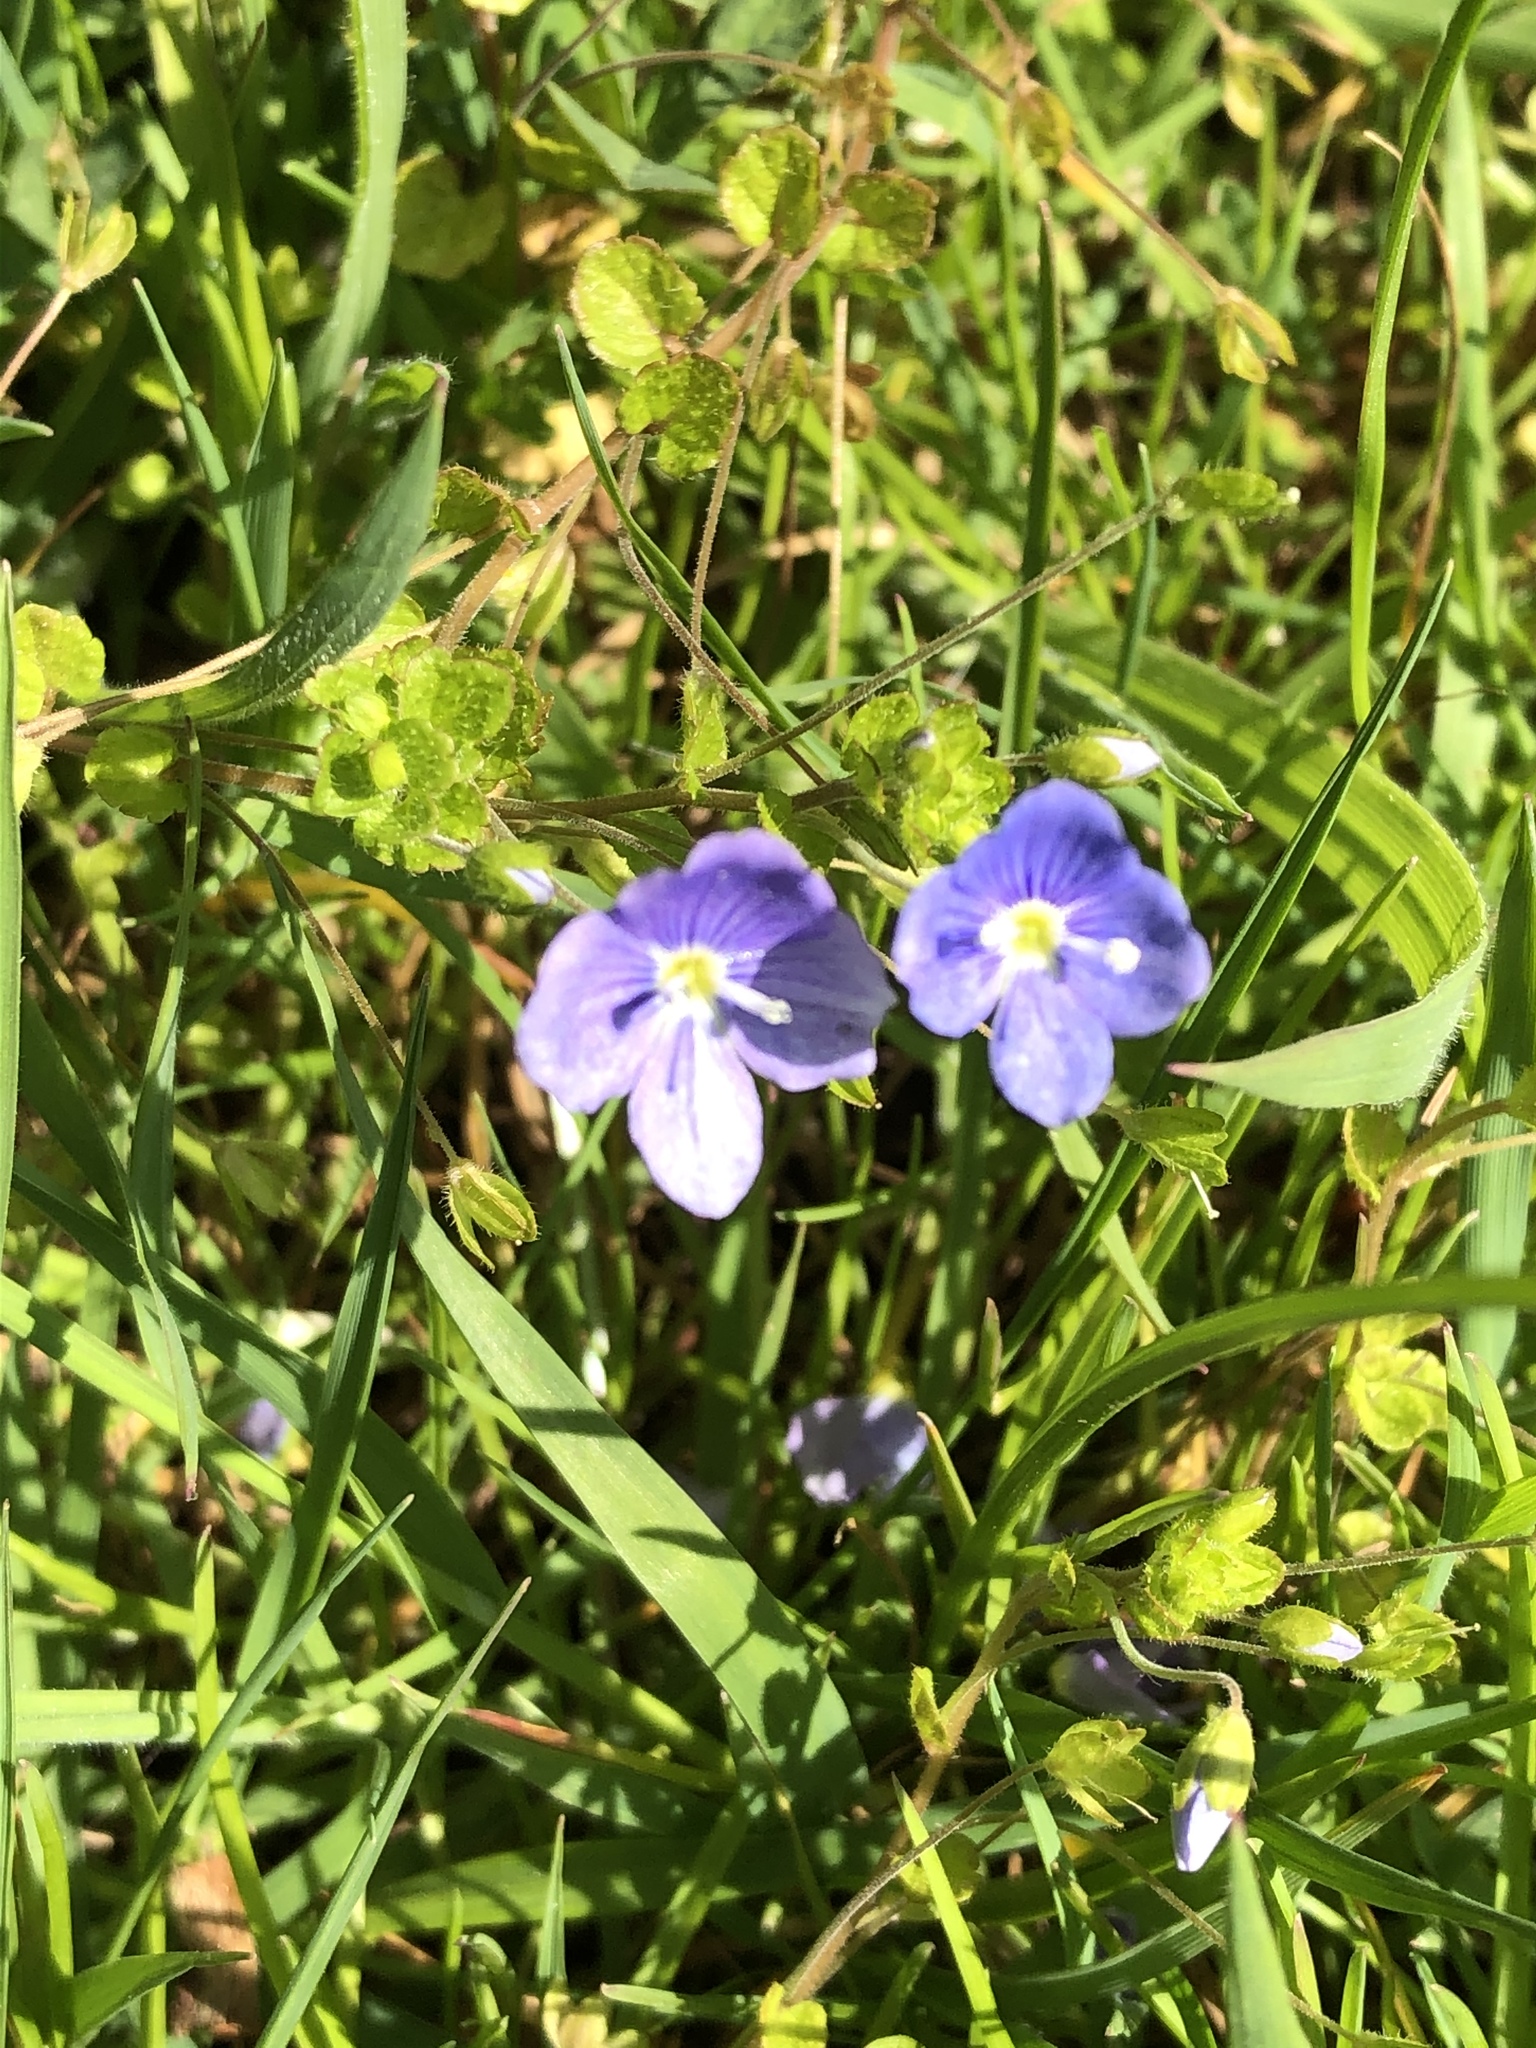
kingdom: Plantae
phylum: Tracheophyta
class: Magnoliopsida
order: Lamiales
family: Plantaginaceae
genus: Veronica
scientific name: Veronica filiformis
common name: Slender speedwell
